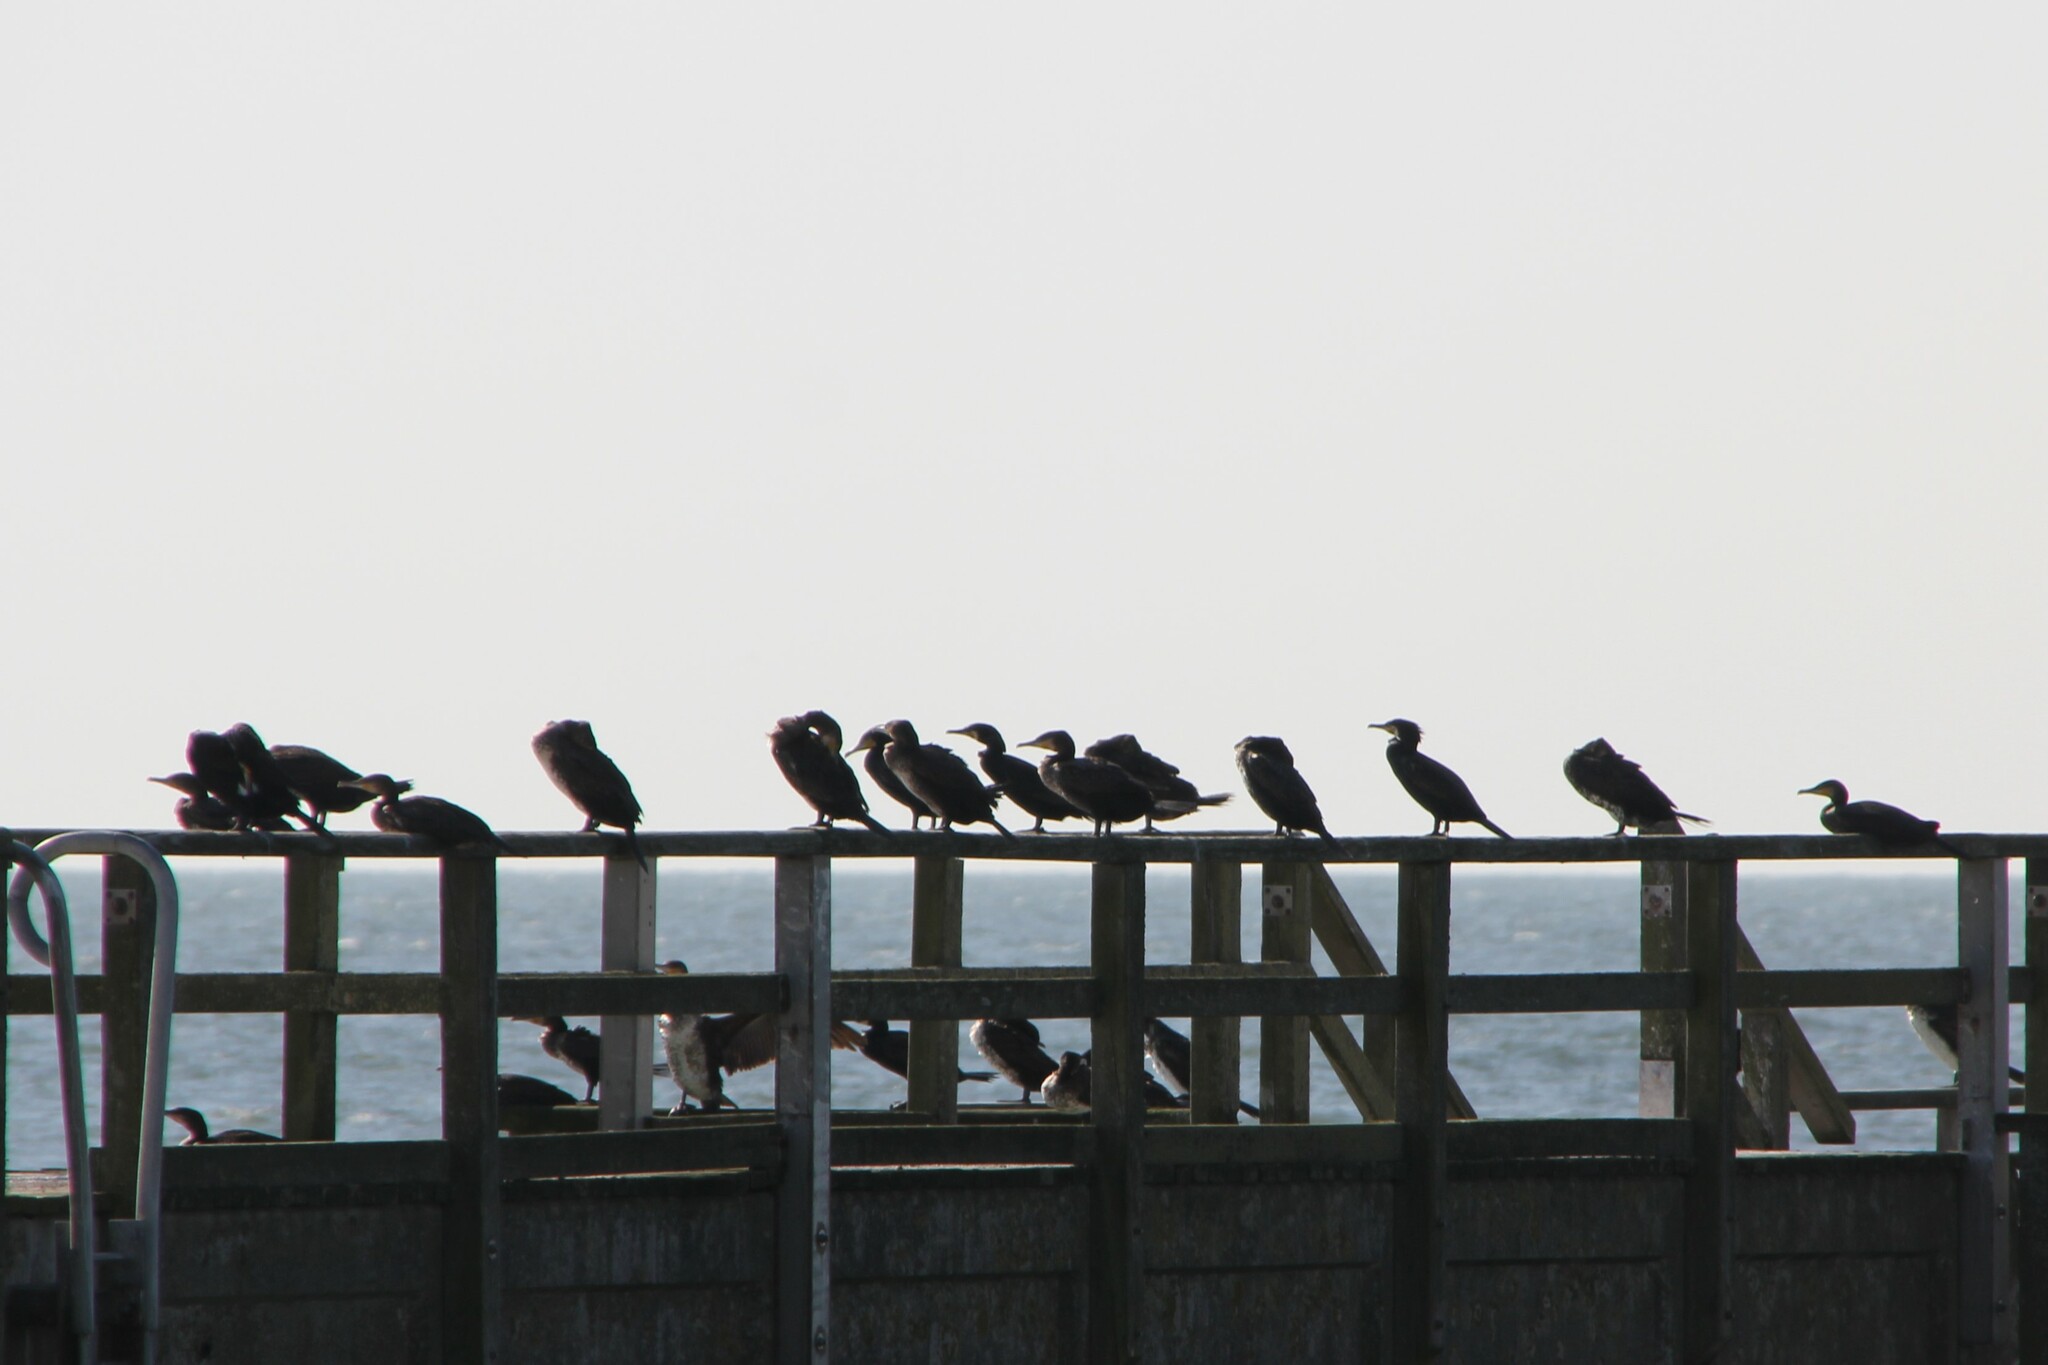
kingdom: Animalia
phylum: Chordata
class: Aves
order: Suliformes
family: Phalacrocoracidae
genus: Phalacrocorax
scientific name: Phalacrocorax carbo
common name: Great cormorant
